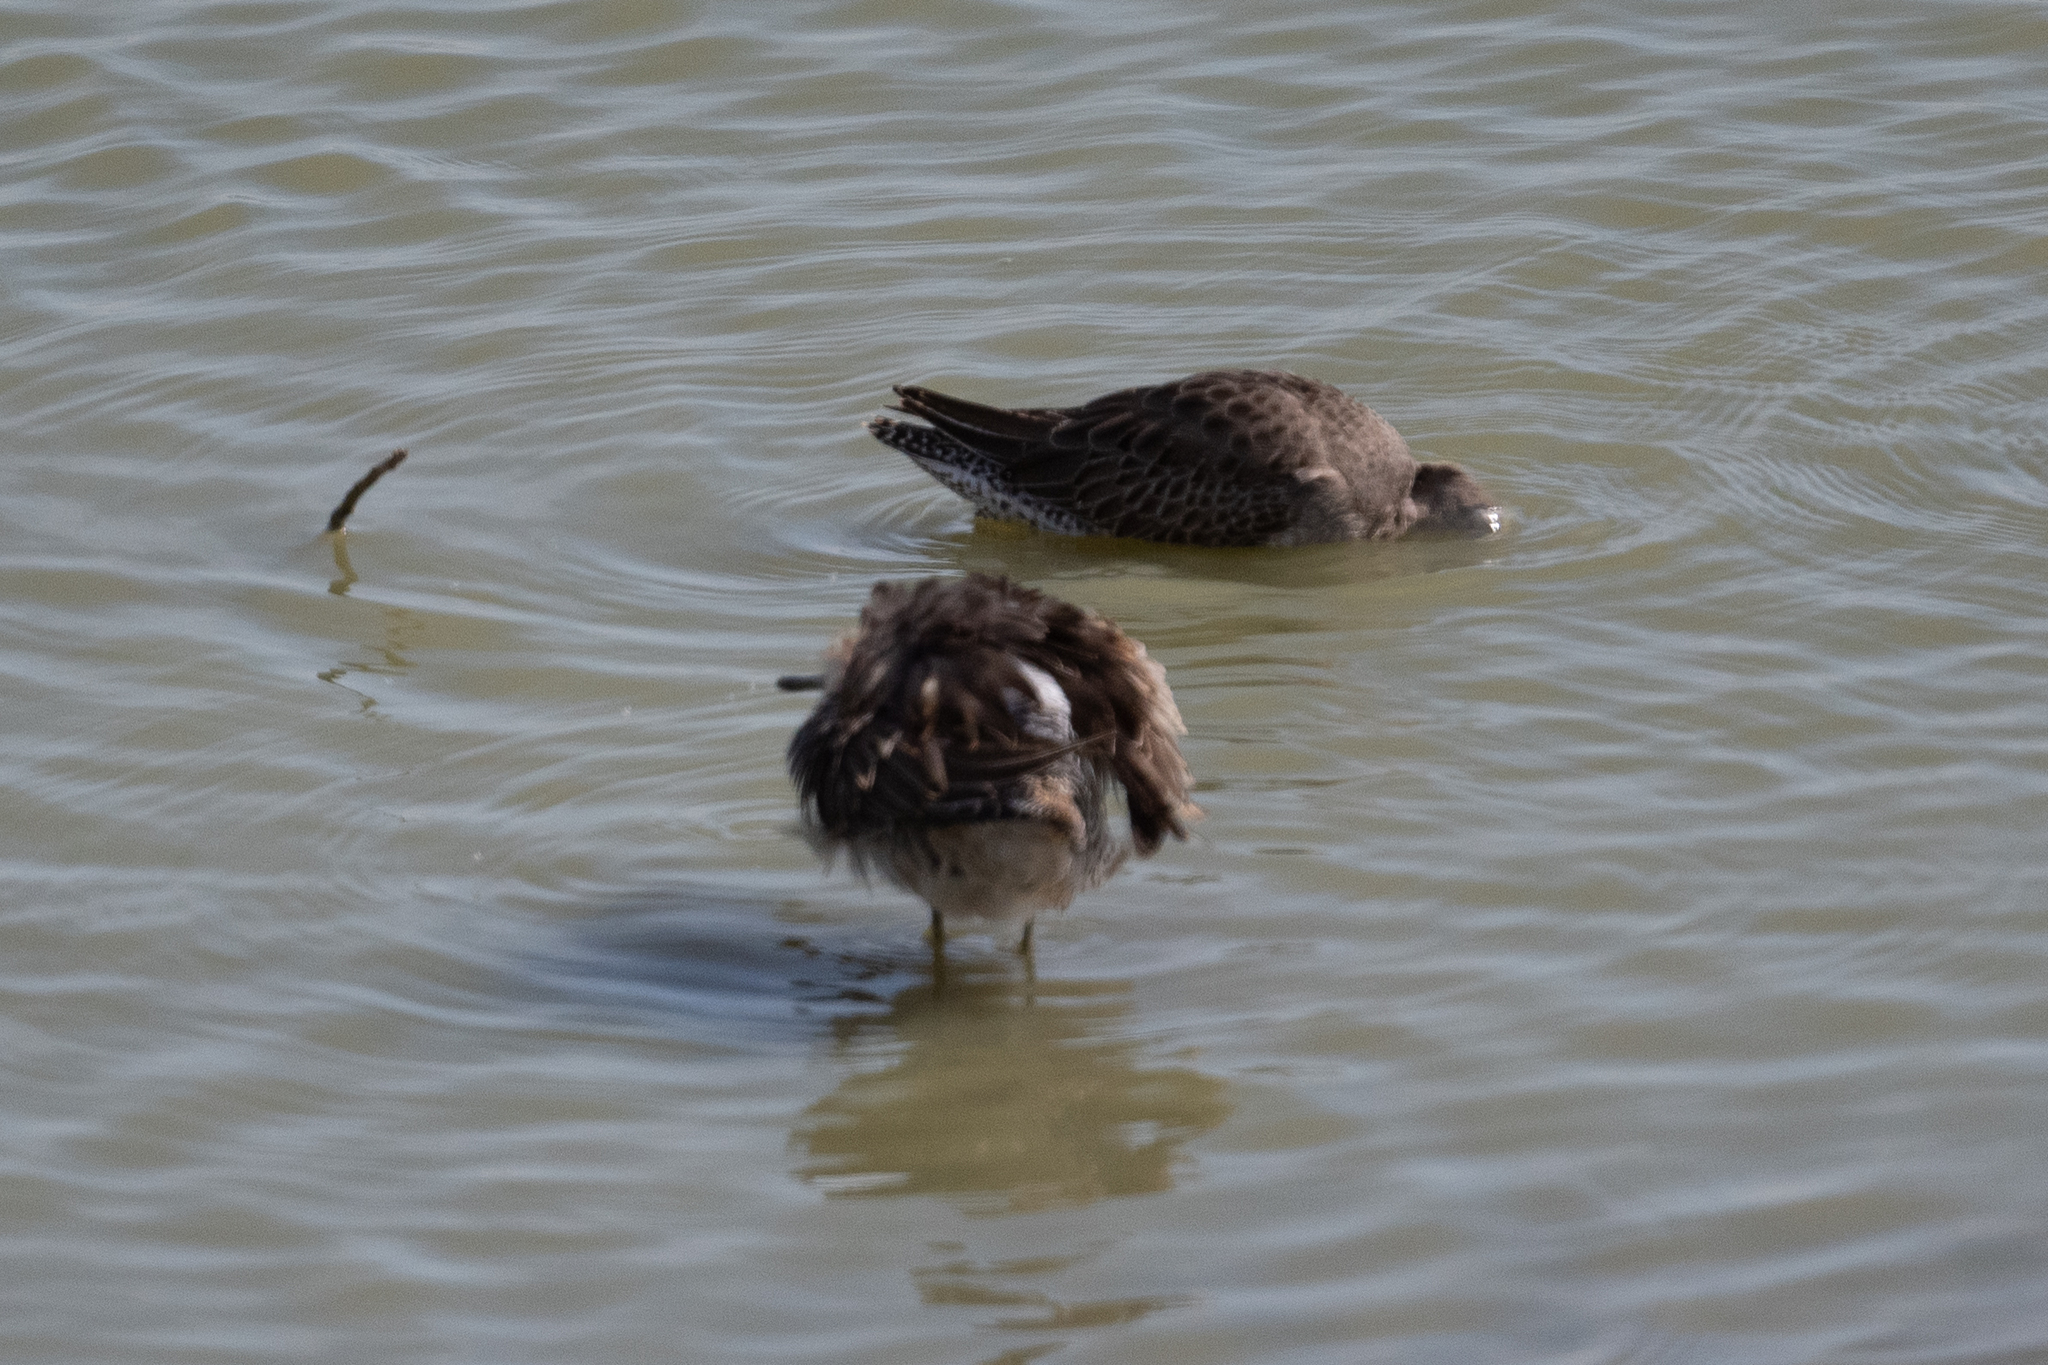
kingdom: Animalia
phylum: Chordata
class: Aves
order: Charadriiformes
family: Scolopacidae
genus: Limnodromus
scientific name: Limnodromus scolopaceus
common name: Long-billed dowitcher
